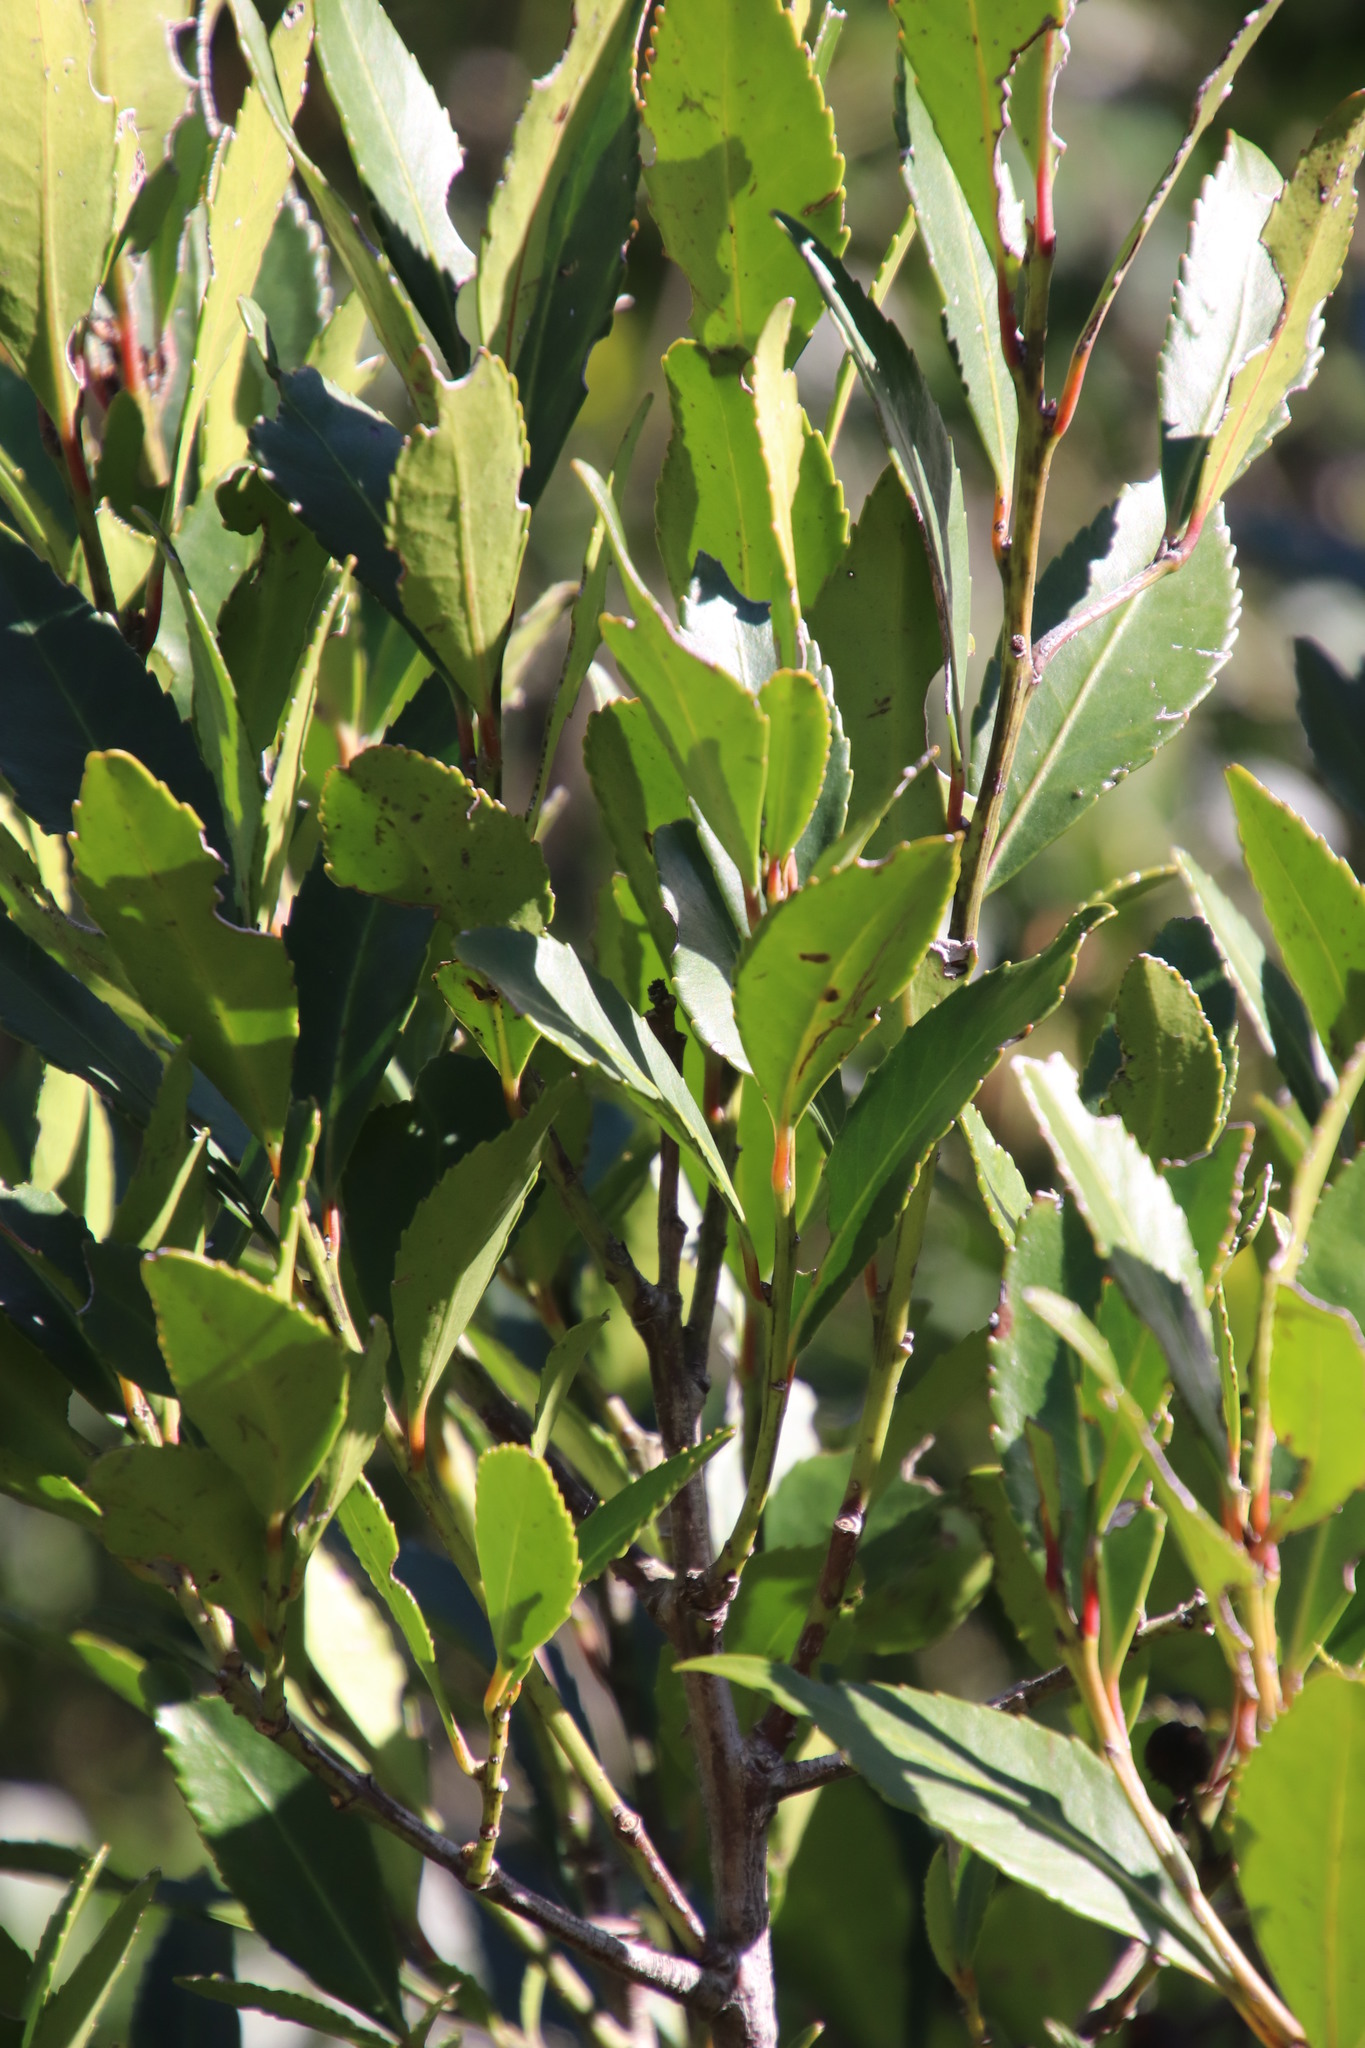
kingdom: Plantae
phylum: Tracheophyta
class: Magnoliopsida
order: Celastrales
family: Celastraceae
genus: Elaeodendron
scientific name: Elaeodendron schinoides
